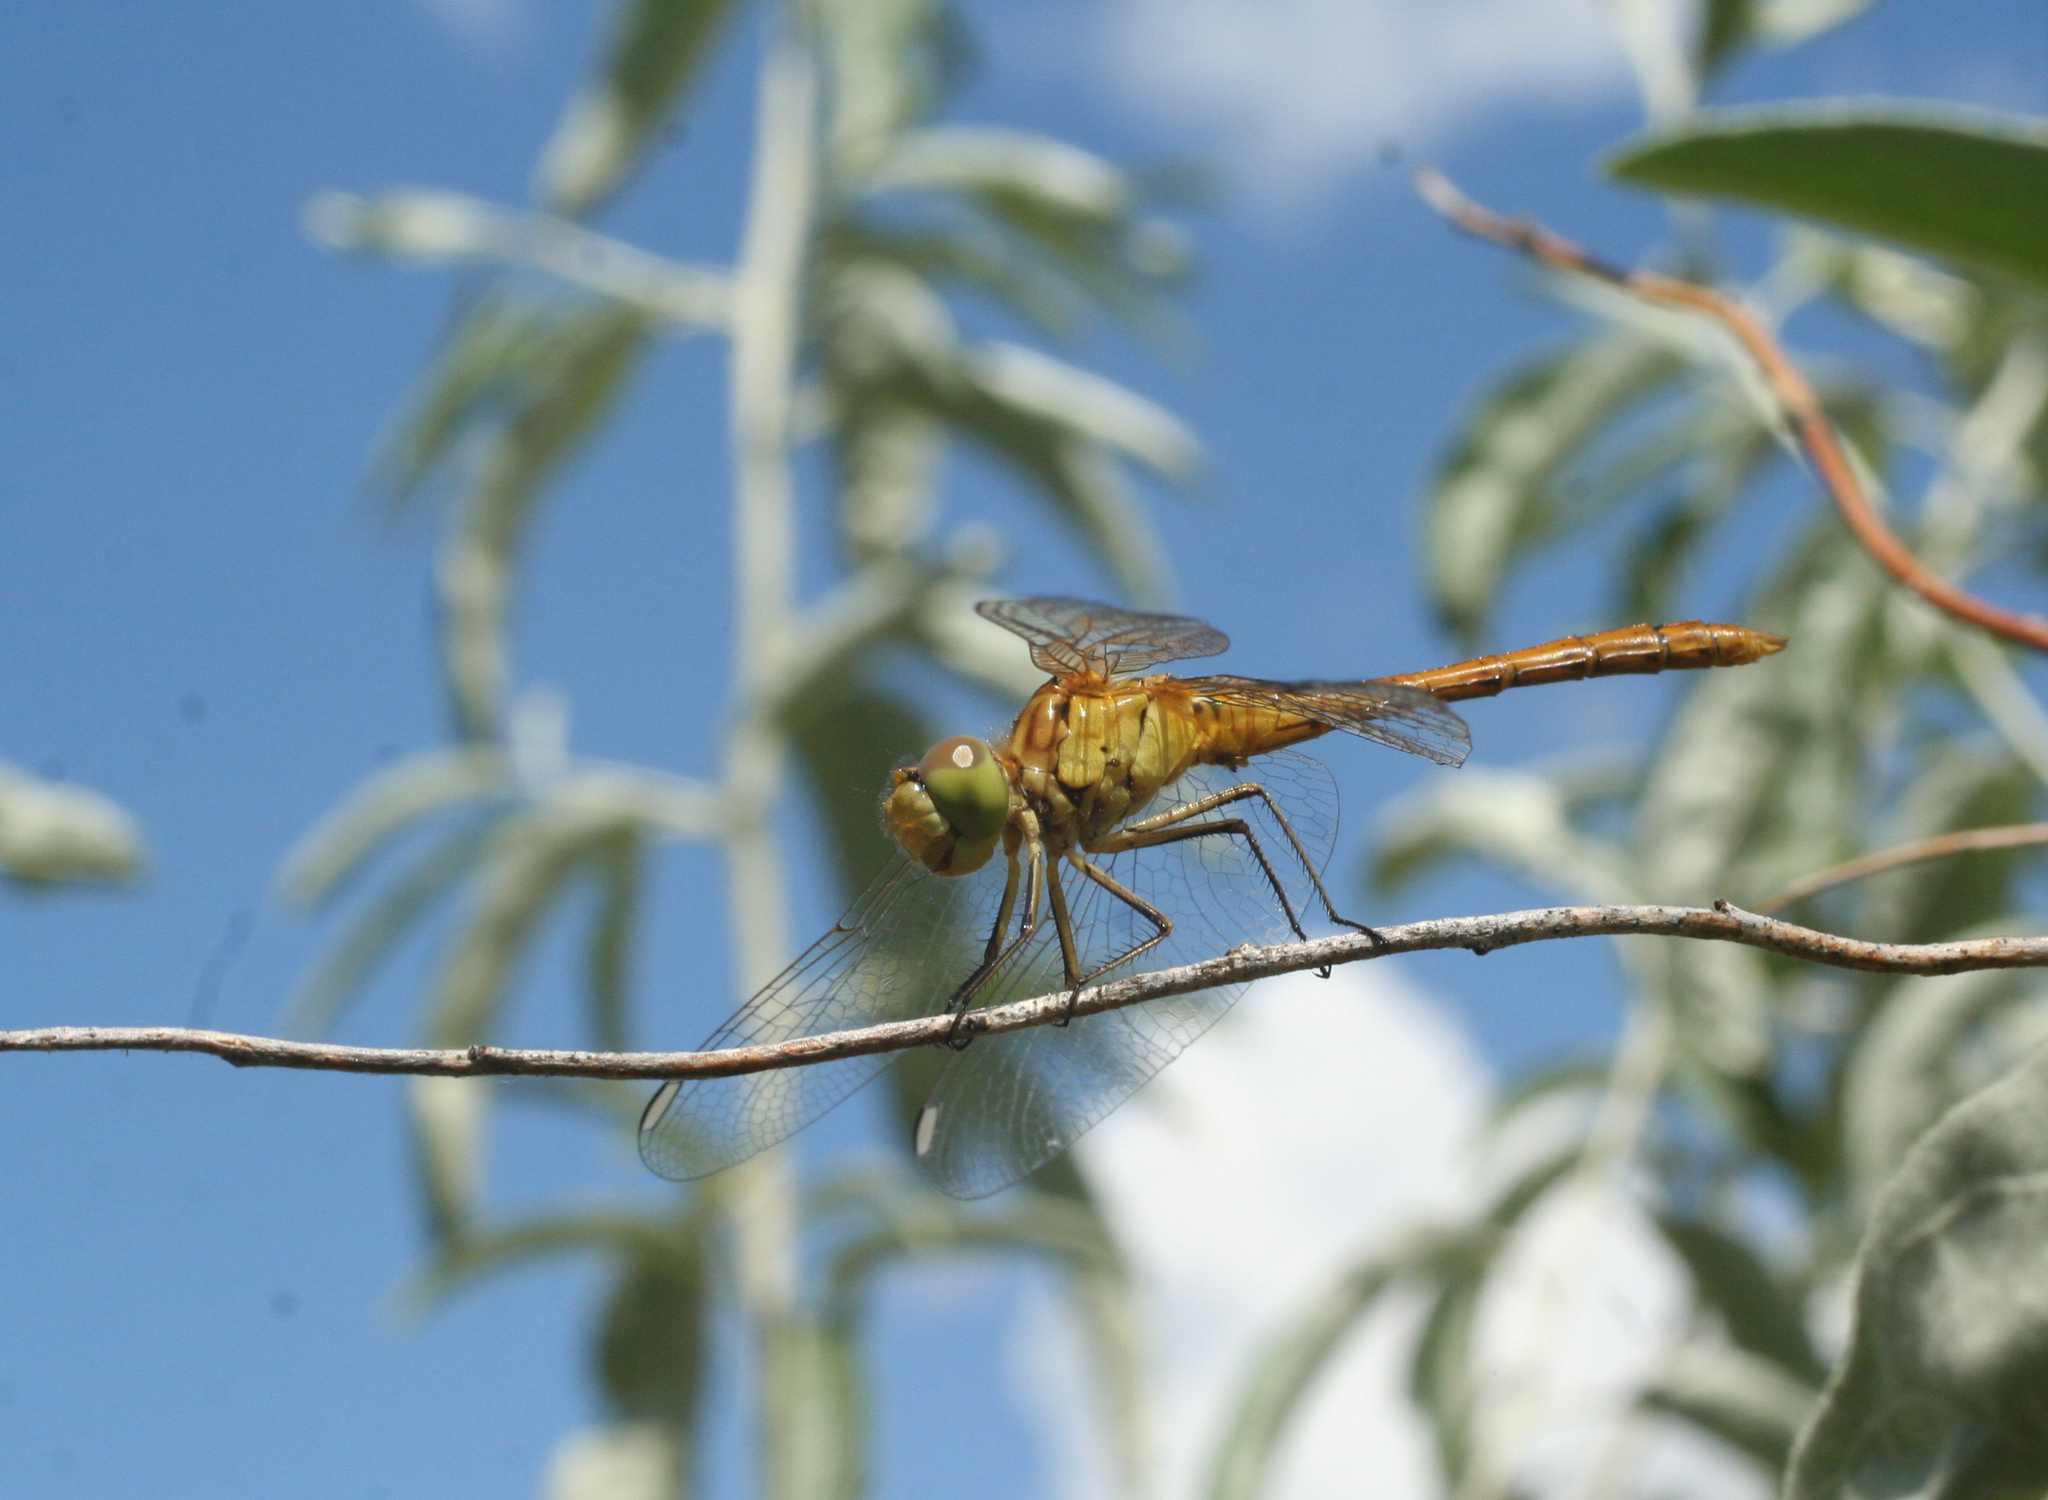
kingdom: Animalia
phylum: Arthropoda
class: Insecta
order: Odonata
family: Libellulidae
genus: Sympetrum
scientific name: Sympetrum meridionale
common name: Southern darter
